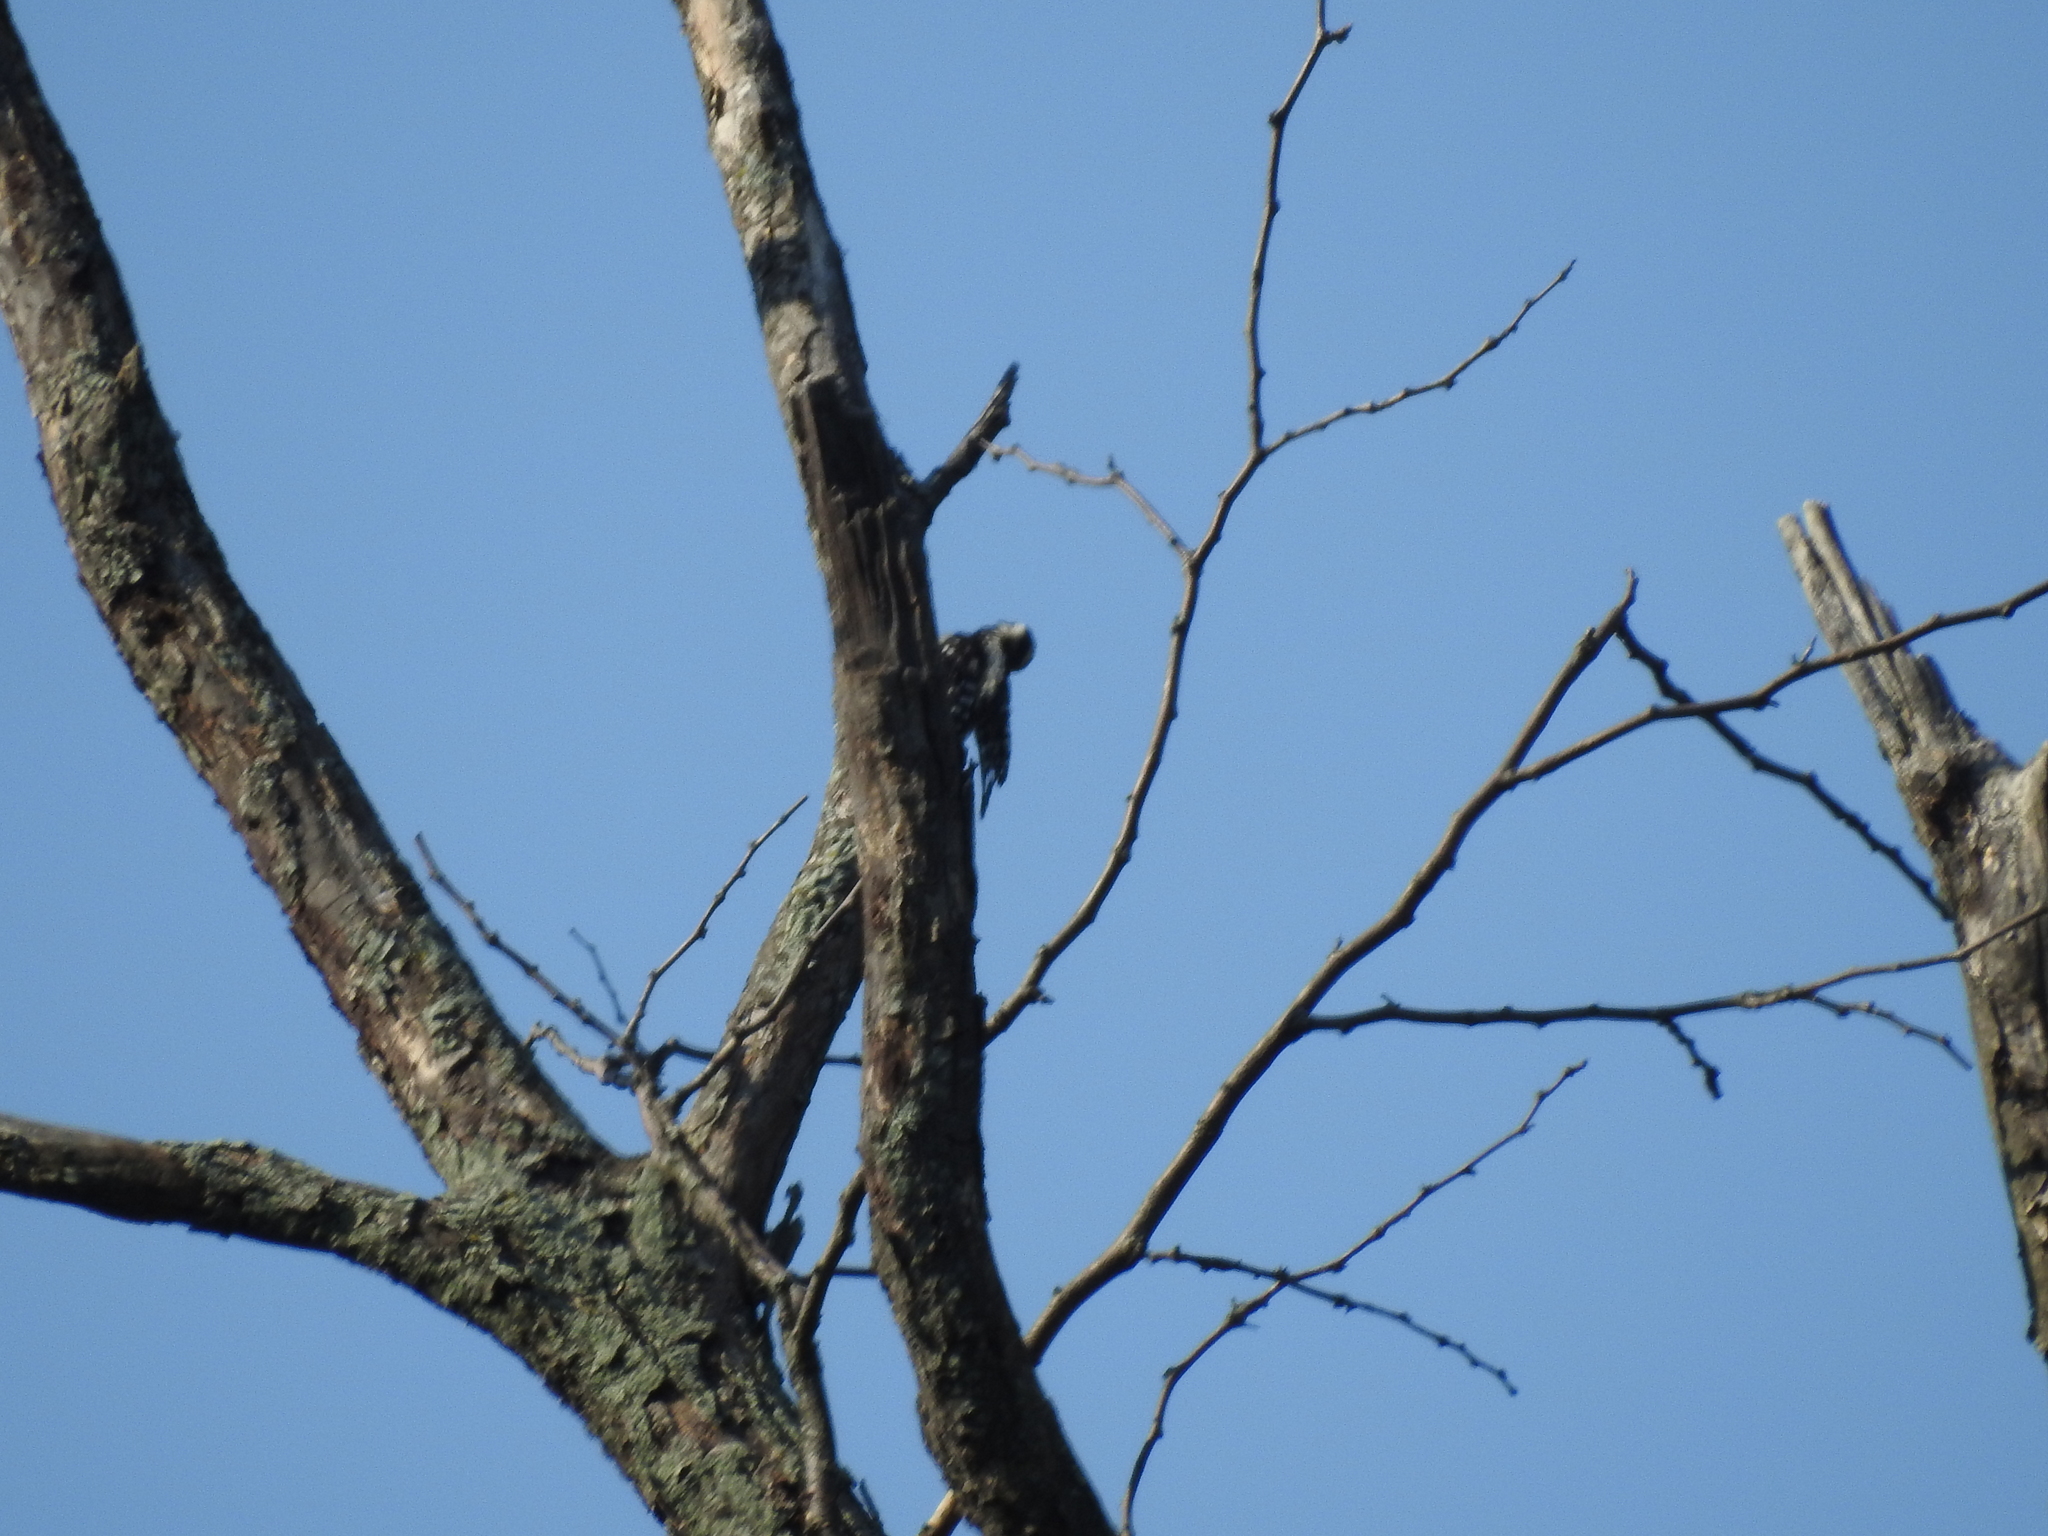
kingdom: Animalia
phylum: Chordata
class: Aves
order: Piciformes
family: Picidae
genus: Dryobates
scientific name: Dryobates
